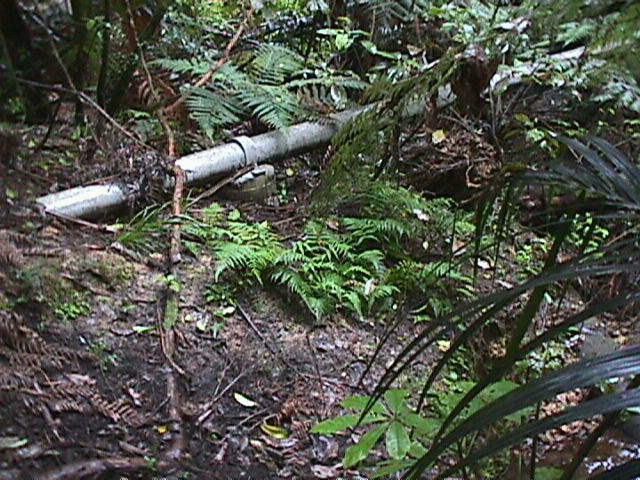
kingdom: Plantae
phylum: Tracheophyta
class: Liliopsida
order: Arecales
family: Arecaceae
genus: Rhopalostylis
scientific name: Rhopalostylis sapida
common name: Feather-duster palm
